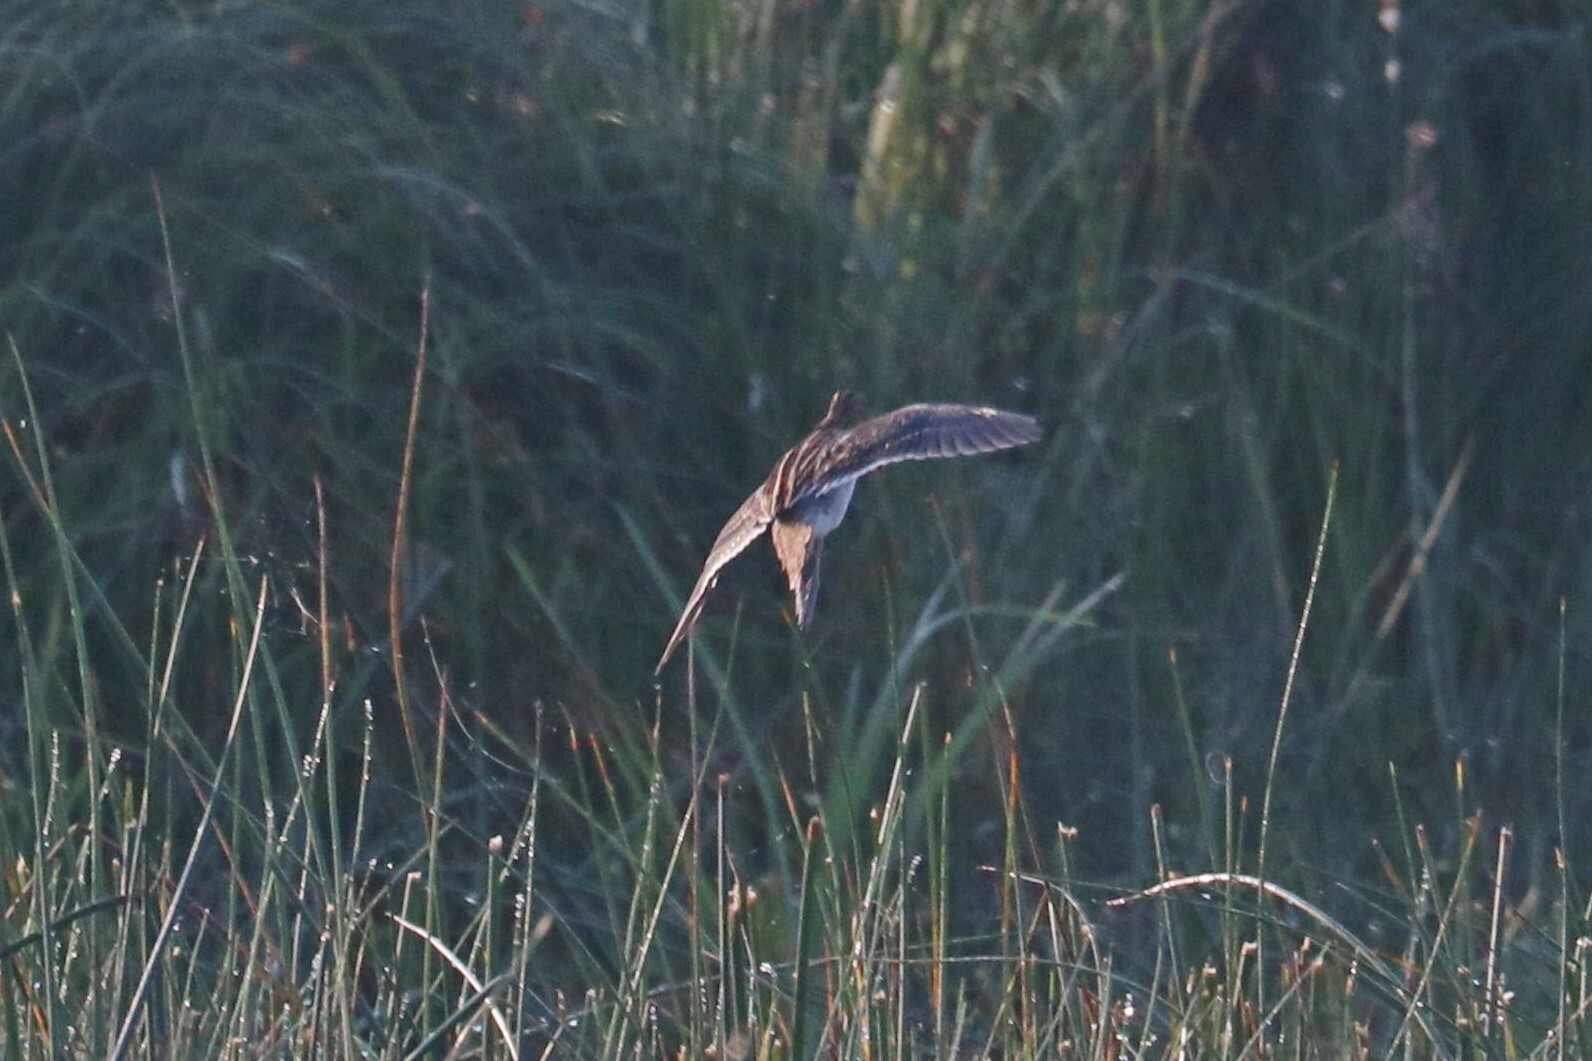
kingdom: Animalia
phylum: Chordata
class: Aves
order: Charadriiformes
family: Scolopacidae
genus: Gallinago
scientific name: Gallinago gallinago
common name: Common snipe
